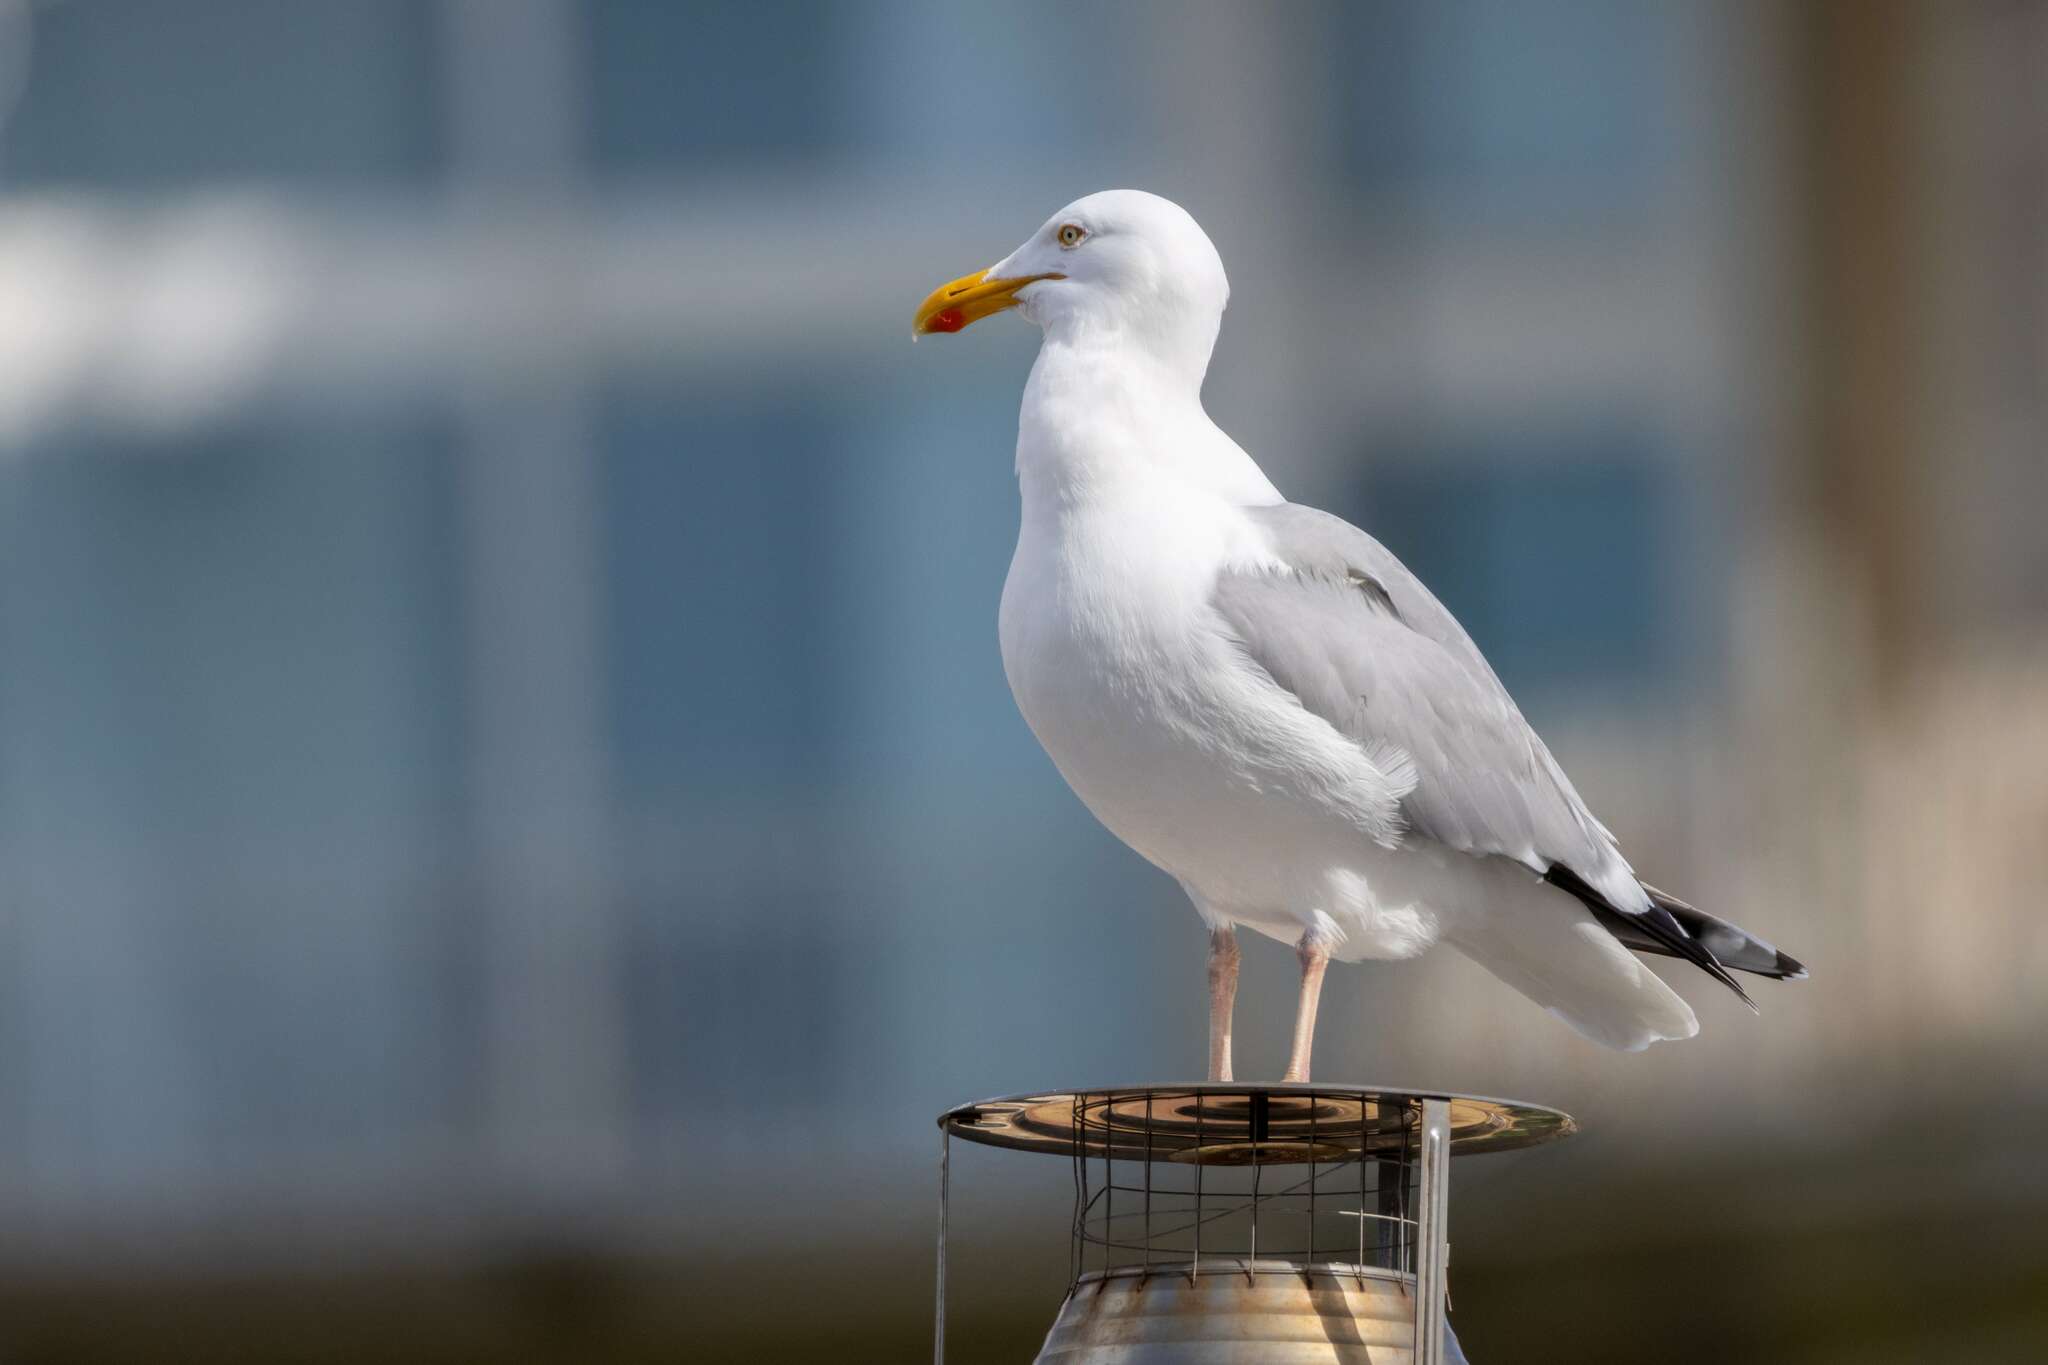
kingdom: Animalia
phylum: Chordata
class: Aves
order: Charadriiformes
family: Laridae
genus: Larus
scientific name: Larus argentatus
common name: Herring gull
